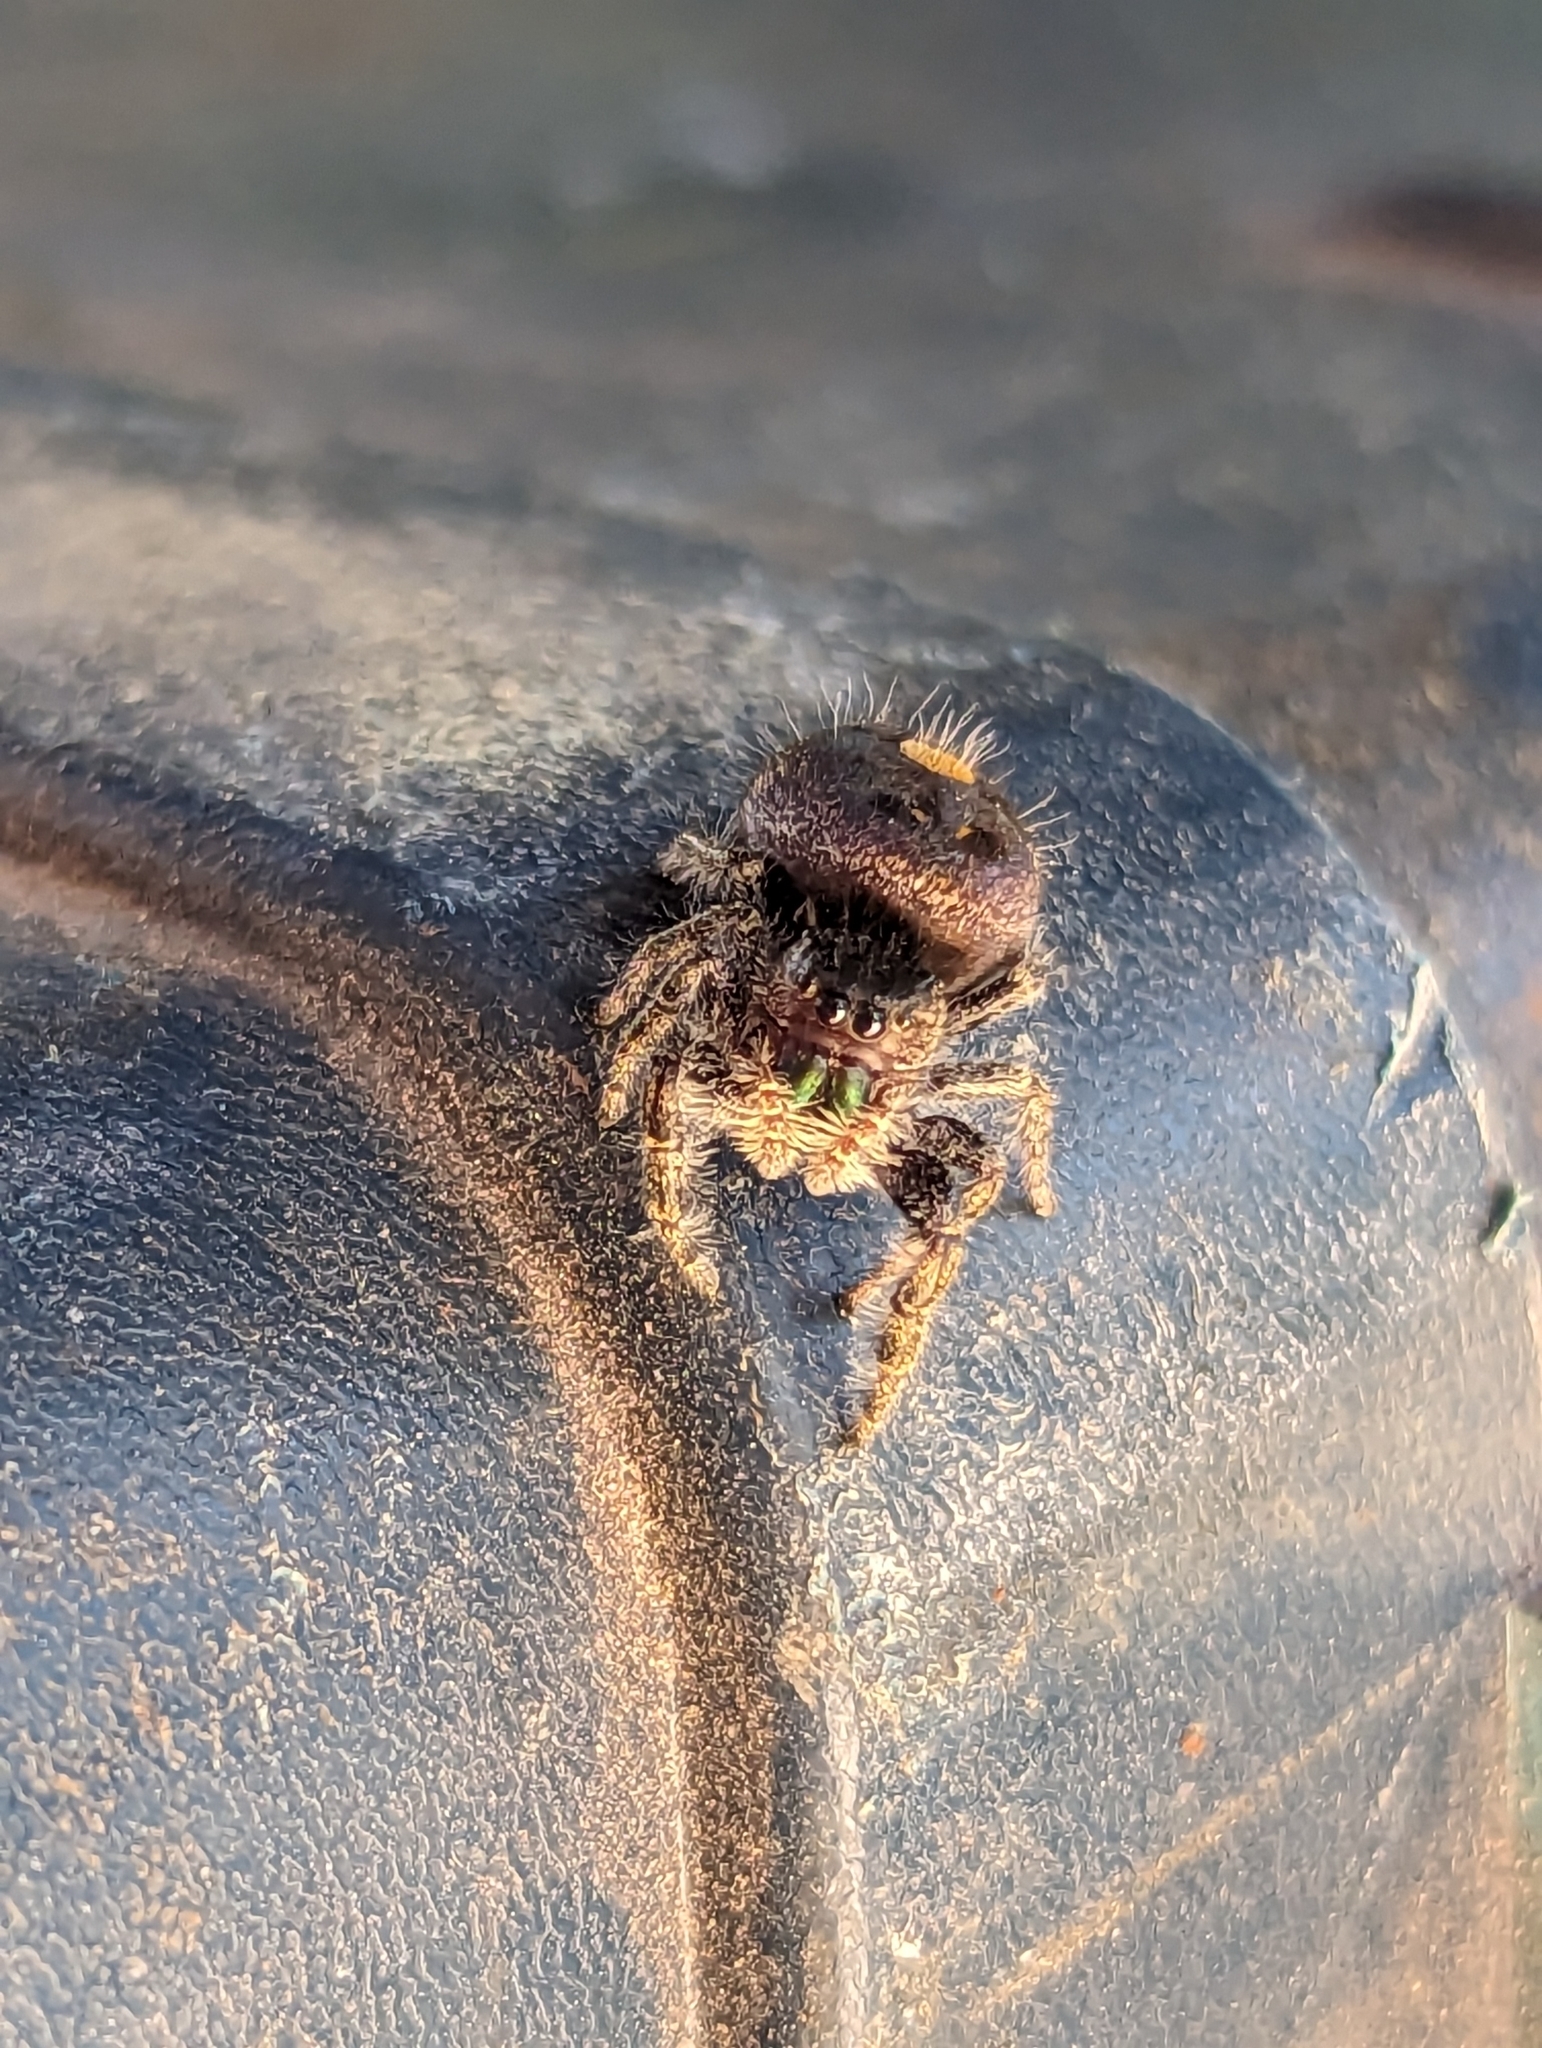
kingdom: Animalia
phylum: Arthropoda
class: Arachnida
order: Araneae
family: Salticidae
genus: Phidippus
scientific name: Phidippus audax
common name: Bold jumper
